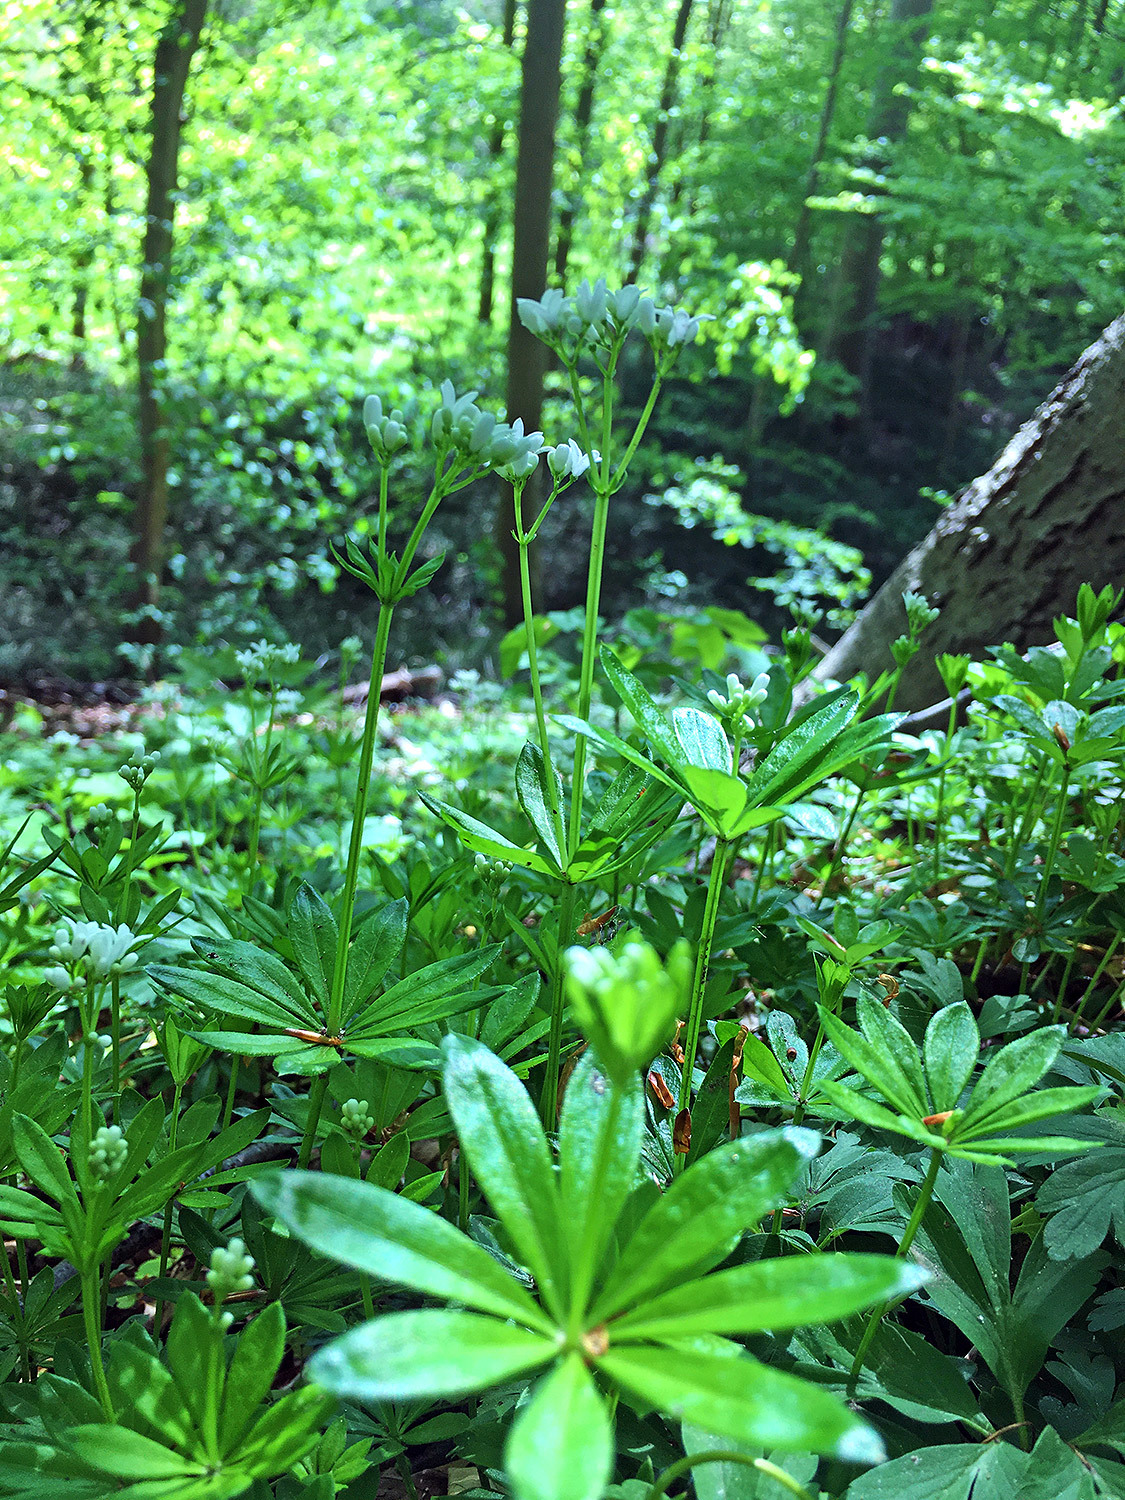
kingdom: Plantae
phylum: Tracheophyta
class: Magnoliopsida
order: Gentianales
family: Rubiaceae
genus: Galium
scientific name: Galium odoratum
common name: Sweet woodruff
